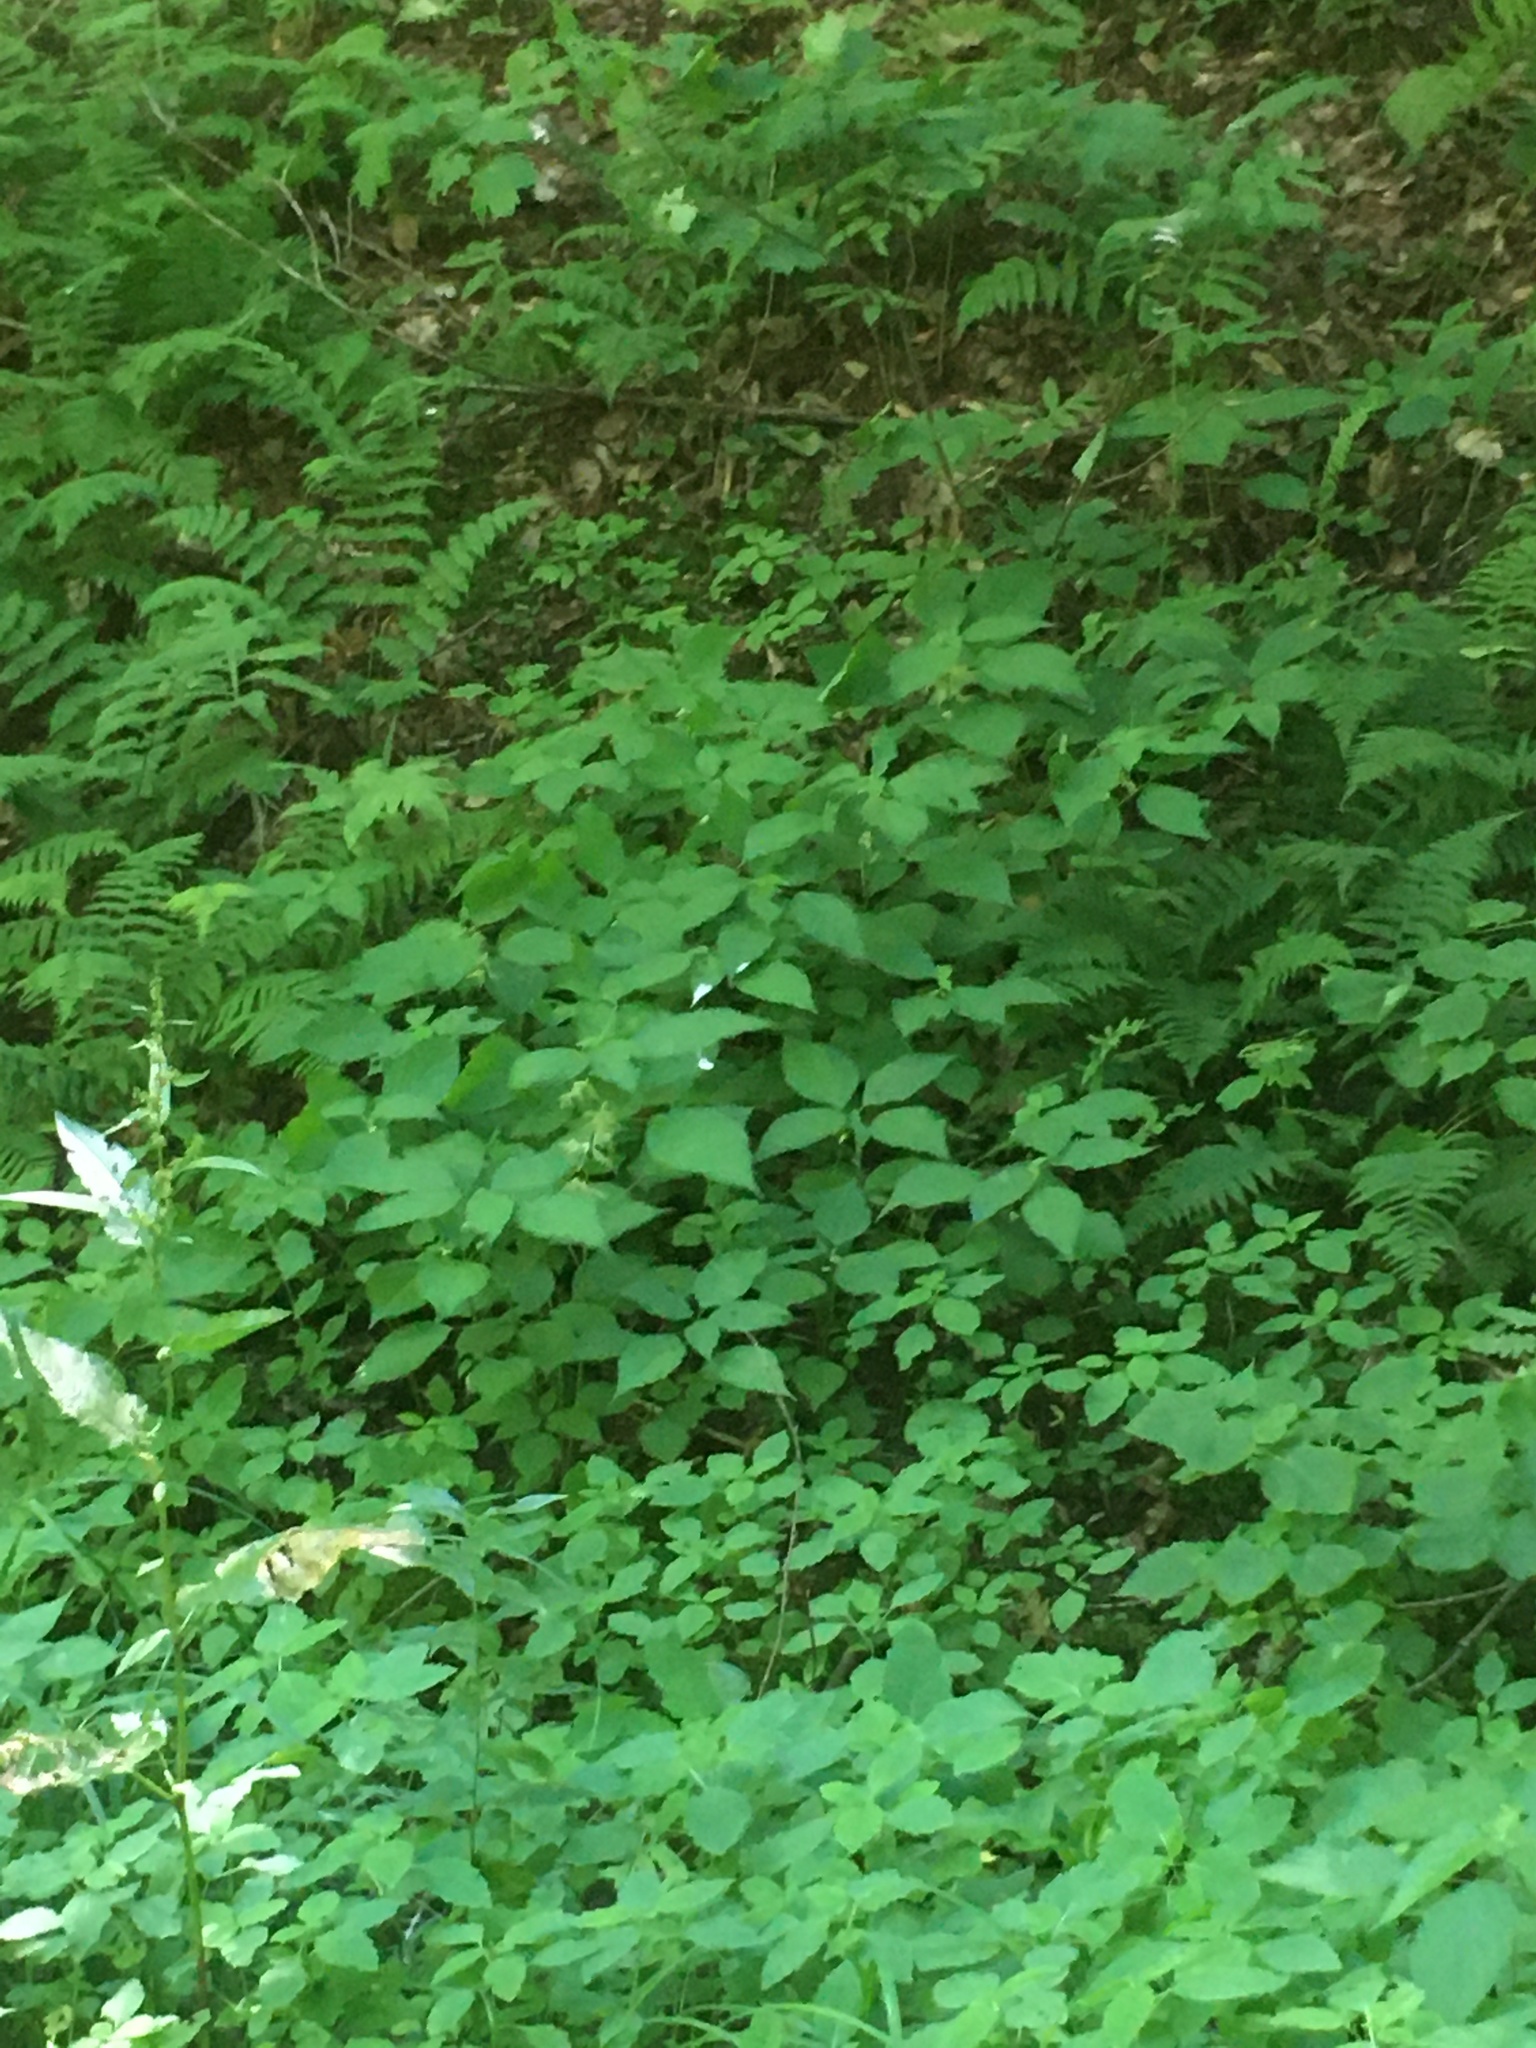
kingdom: Plantae
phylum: Tracheophyta
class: Magnoliopsida
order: Rosales
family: Urticaceae
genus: Laportea
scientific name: Laportea canadensis
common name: Canada nettle
